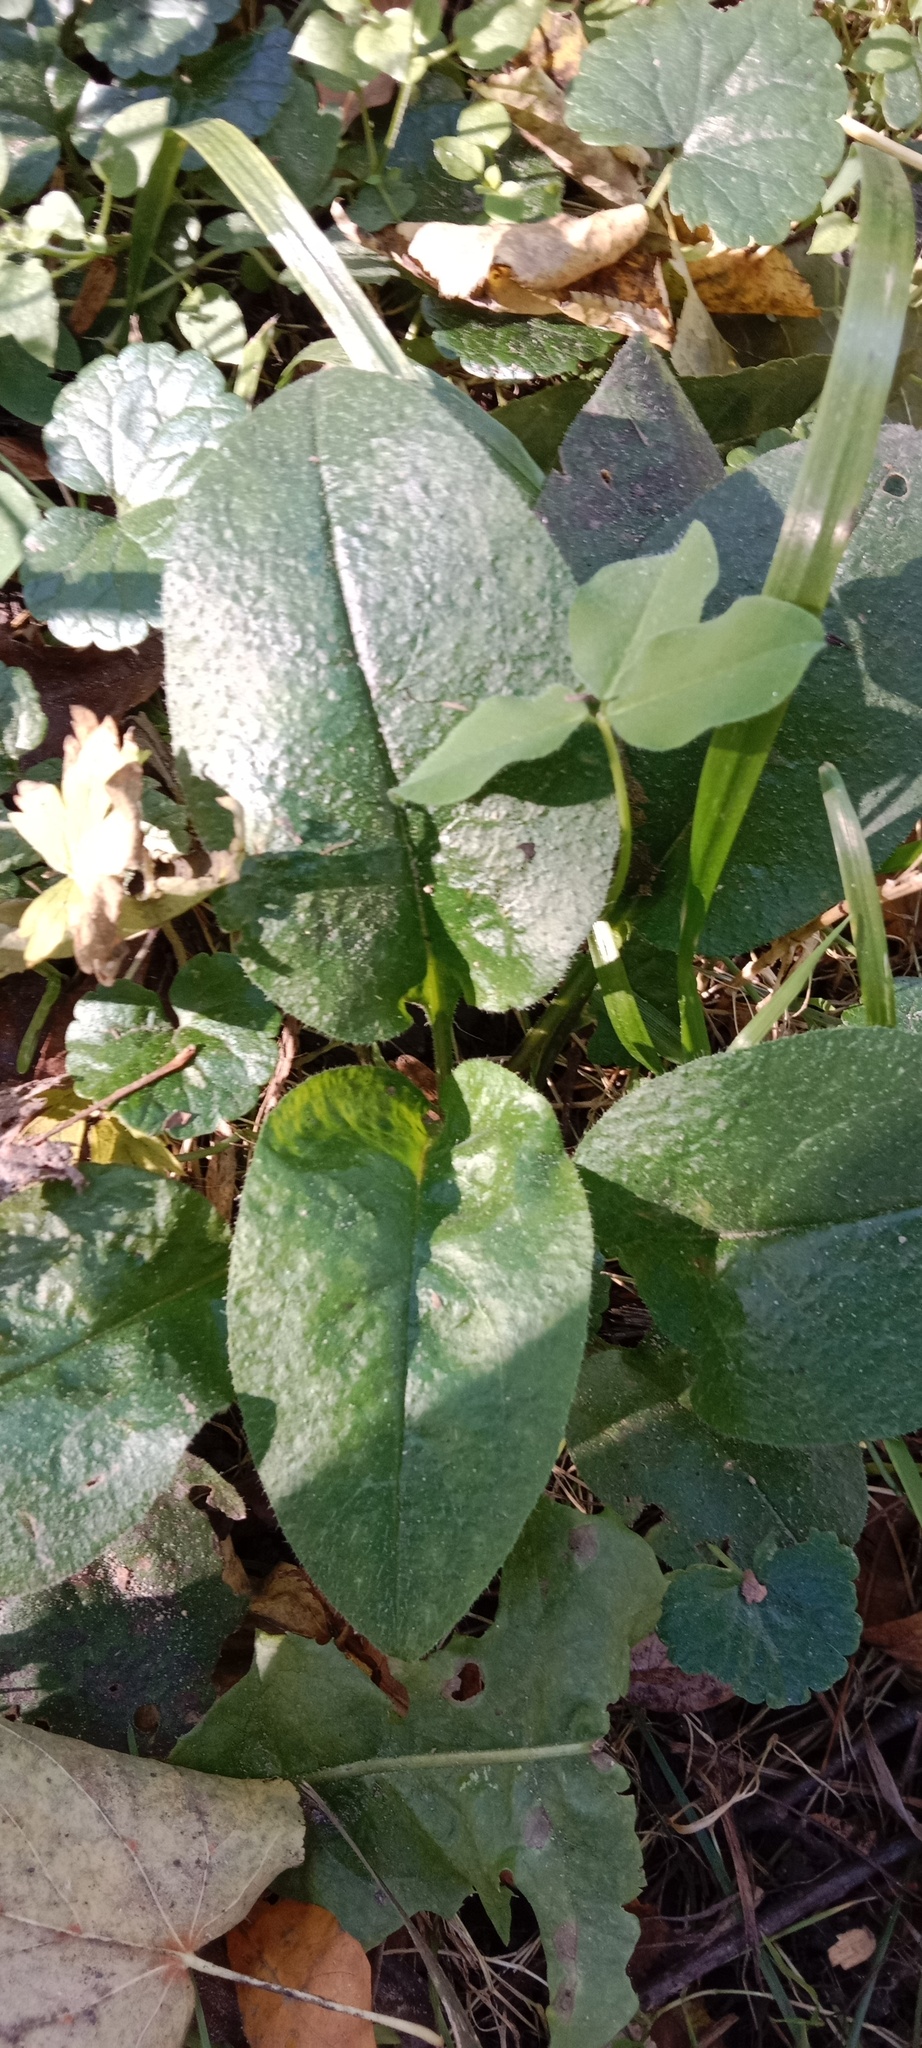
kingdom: Plantae
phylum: Tracheophyta
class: Magnoliopsida
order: Boraginales
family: Boraginaceae
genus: Pulmonaria
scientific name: Pulmonaria obscura
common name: Suffolk lungwort
